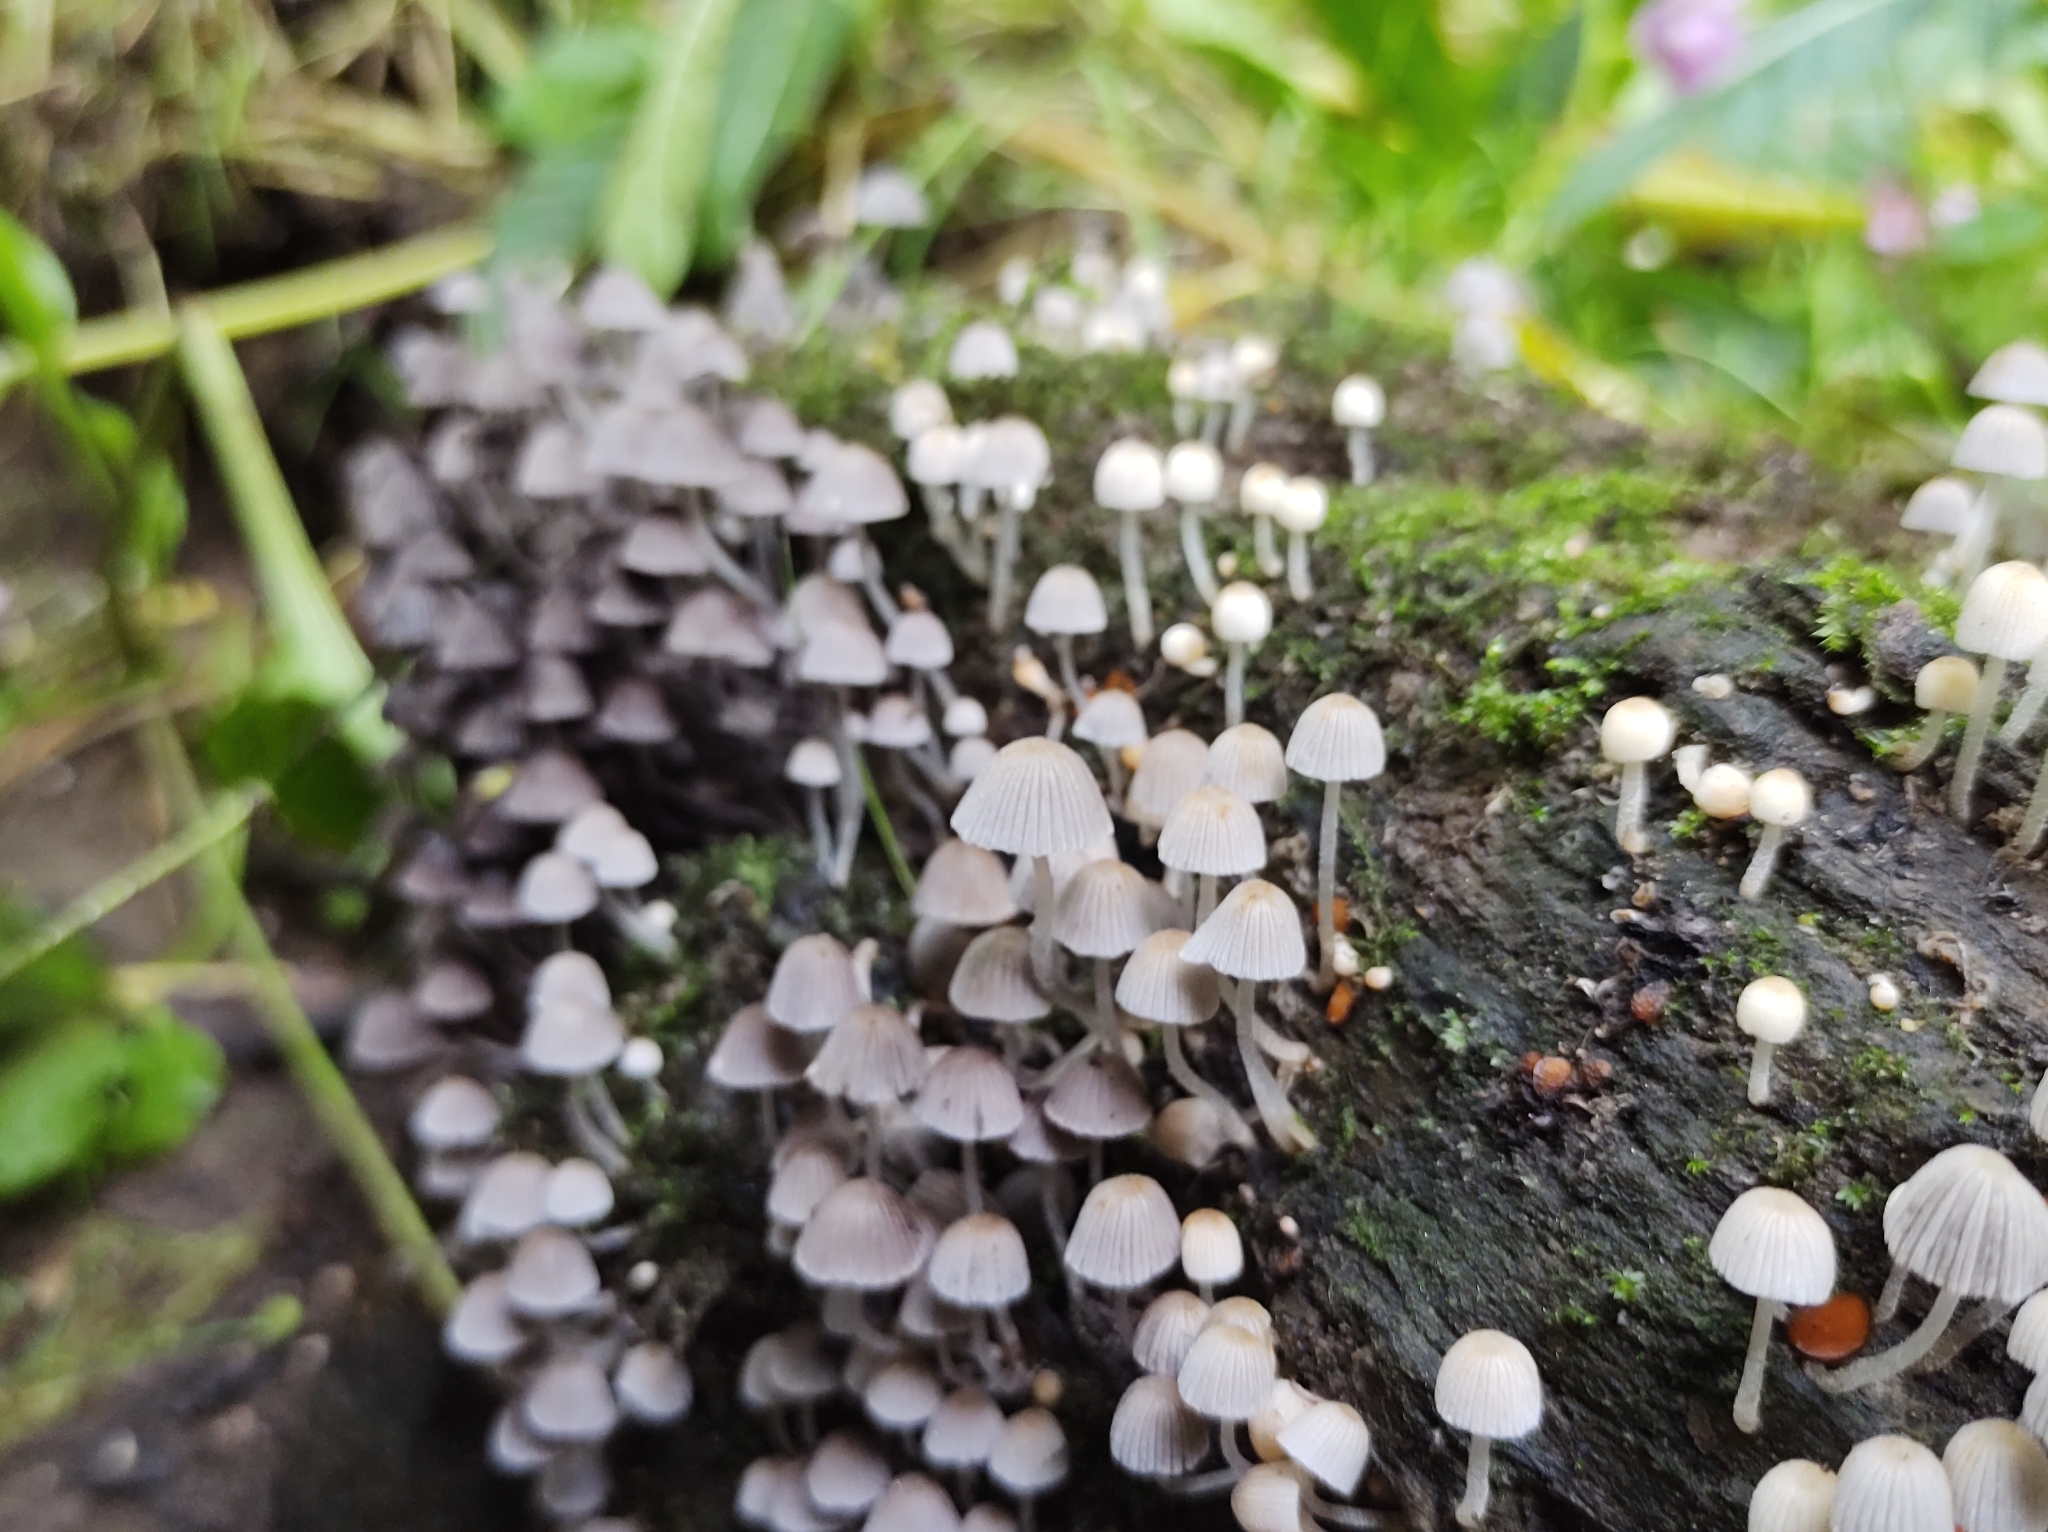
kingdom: Fungi
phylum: Basidiomycota
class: Agaricomycetes
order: Agaricales
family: Psathyrellaceae
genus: Coprinellus
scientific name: Coprinellus disseminatus
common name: Fairies' bonnets
